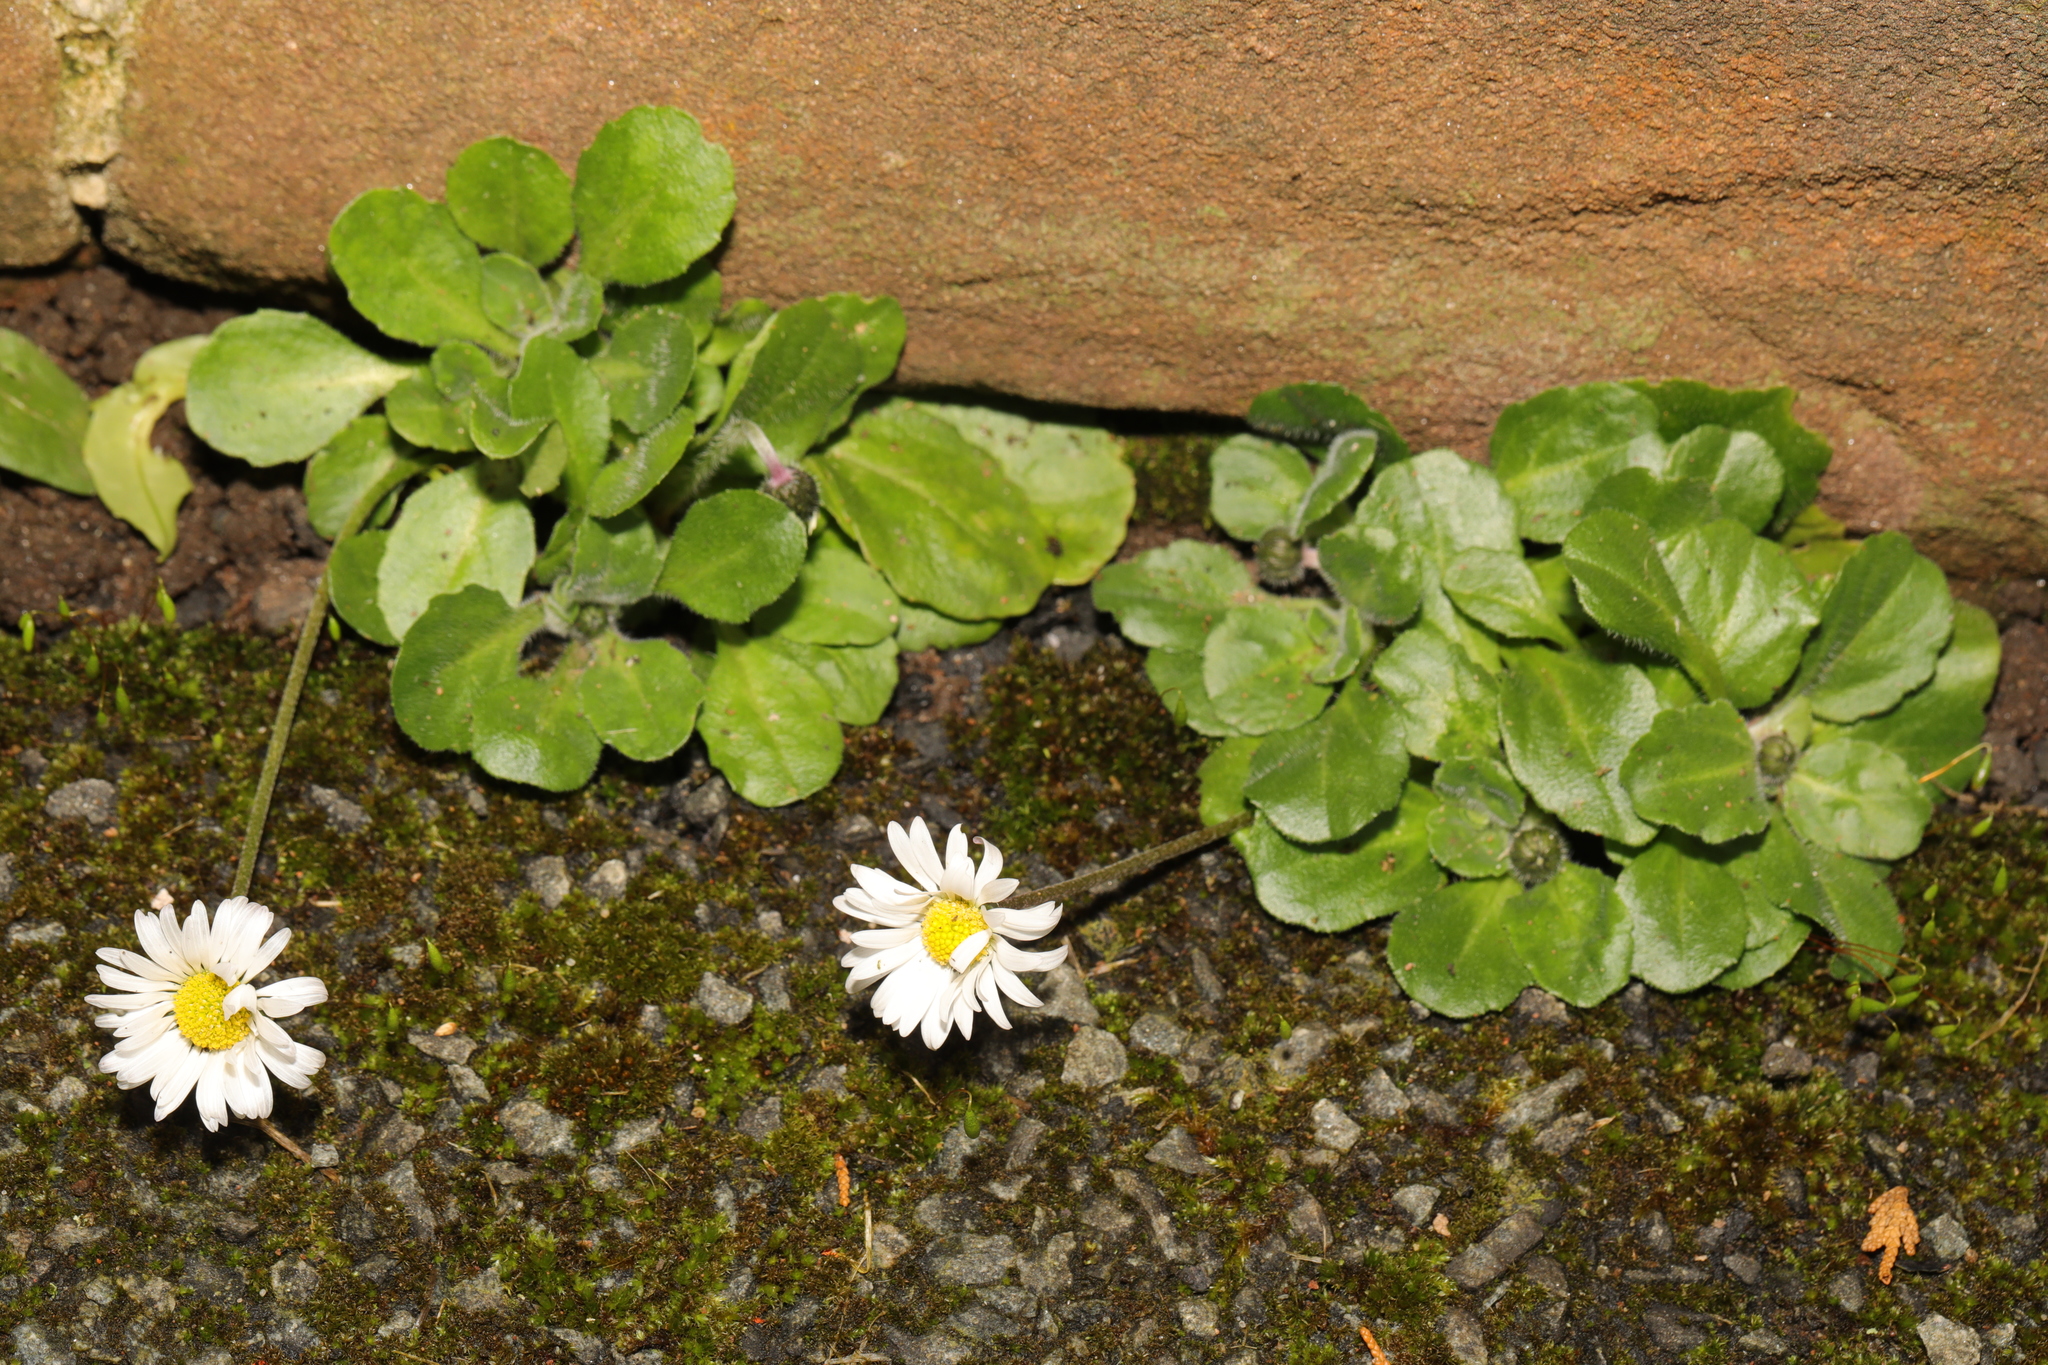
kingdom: Plantae
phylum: Tracheophyta
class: Magnoliopsida
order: Asterales
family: Asteraceae
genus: Bellis
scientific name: Bellis perennis
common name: Lawndaisy
